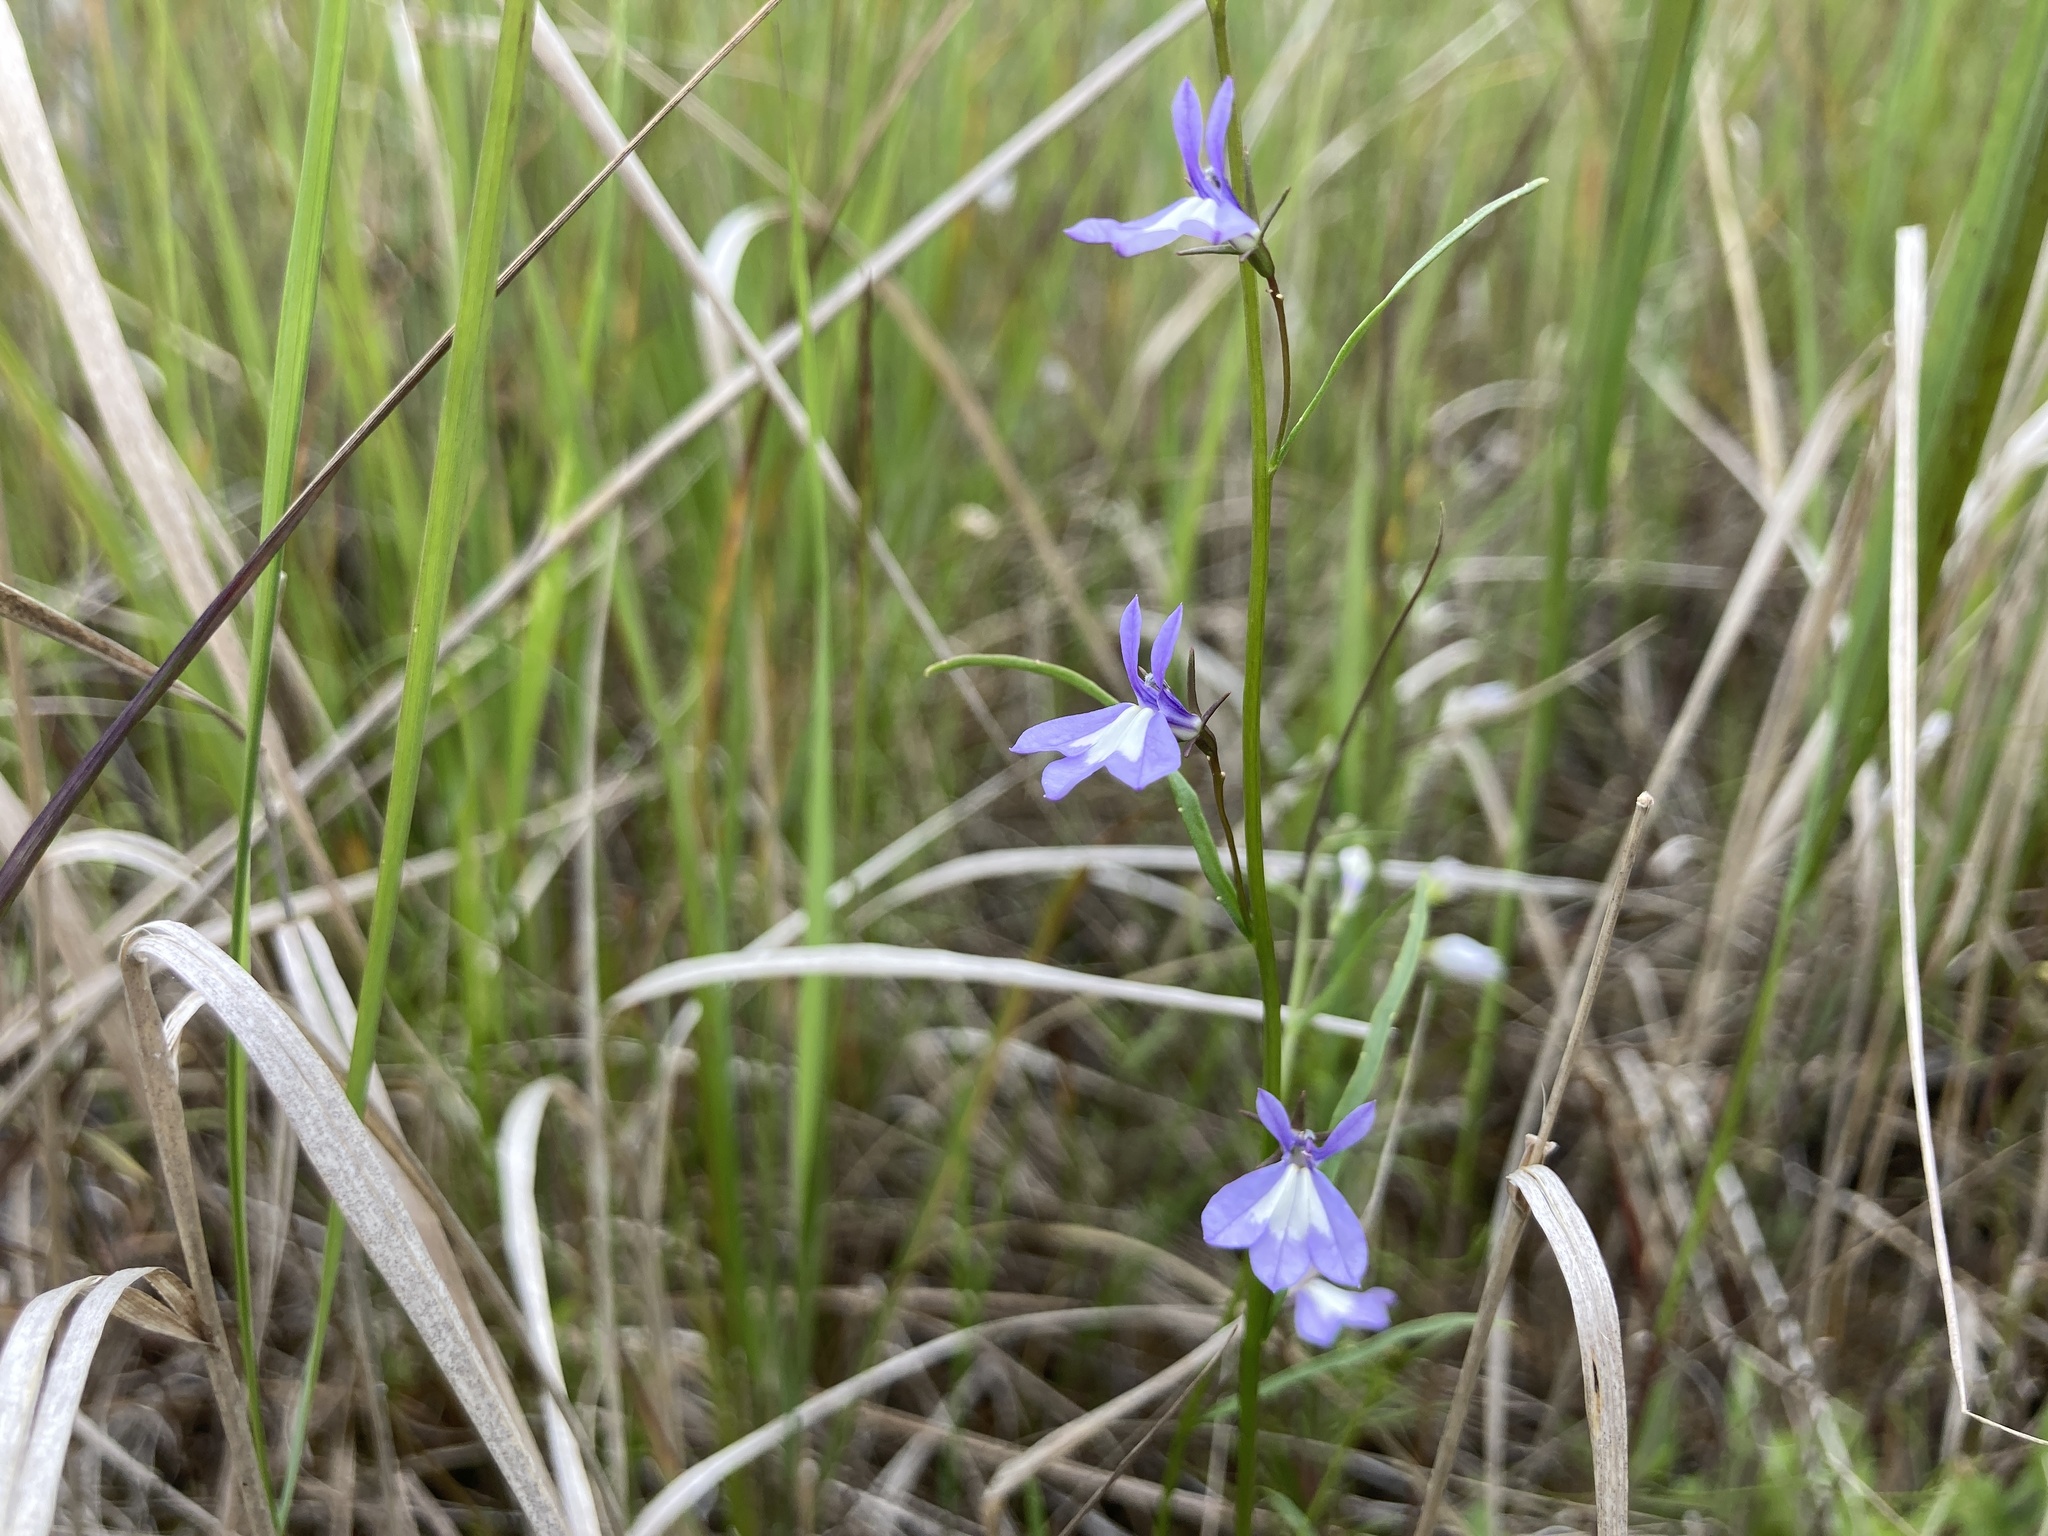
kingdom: Plantae
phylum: Tracheophyta
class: Magnoliopsida
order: Lamiales
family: Lamiaceae
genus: Scutellaria
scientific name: Scutellaria galericulata
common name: Skullcap
